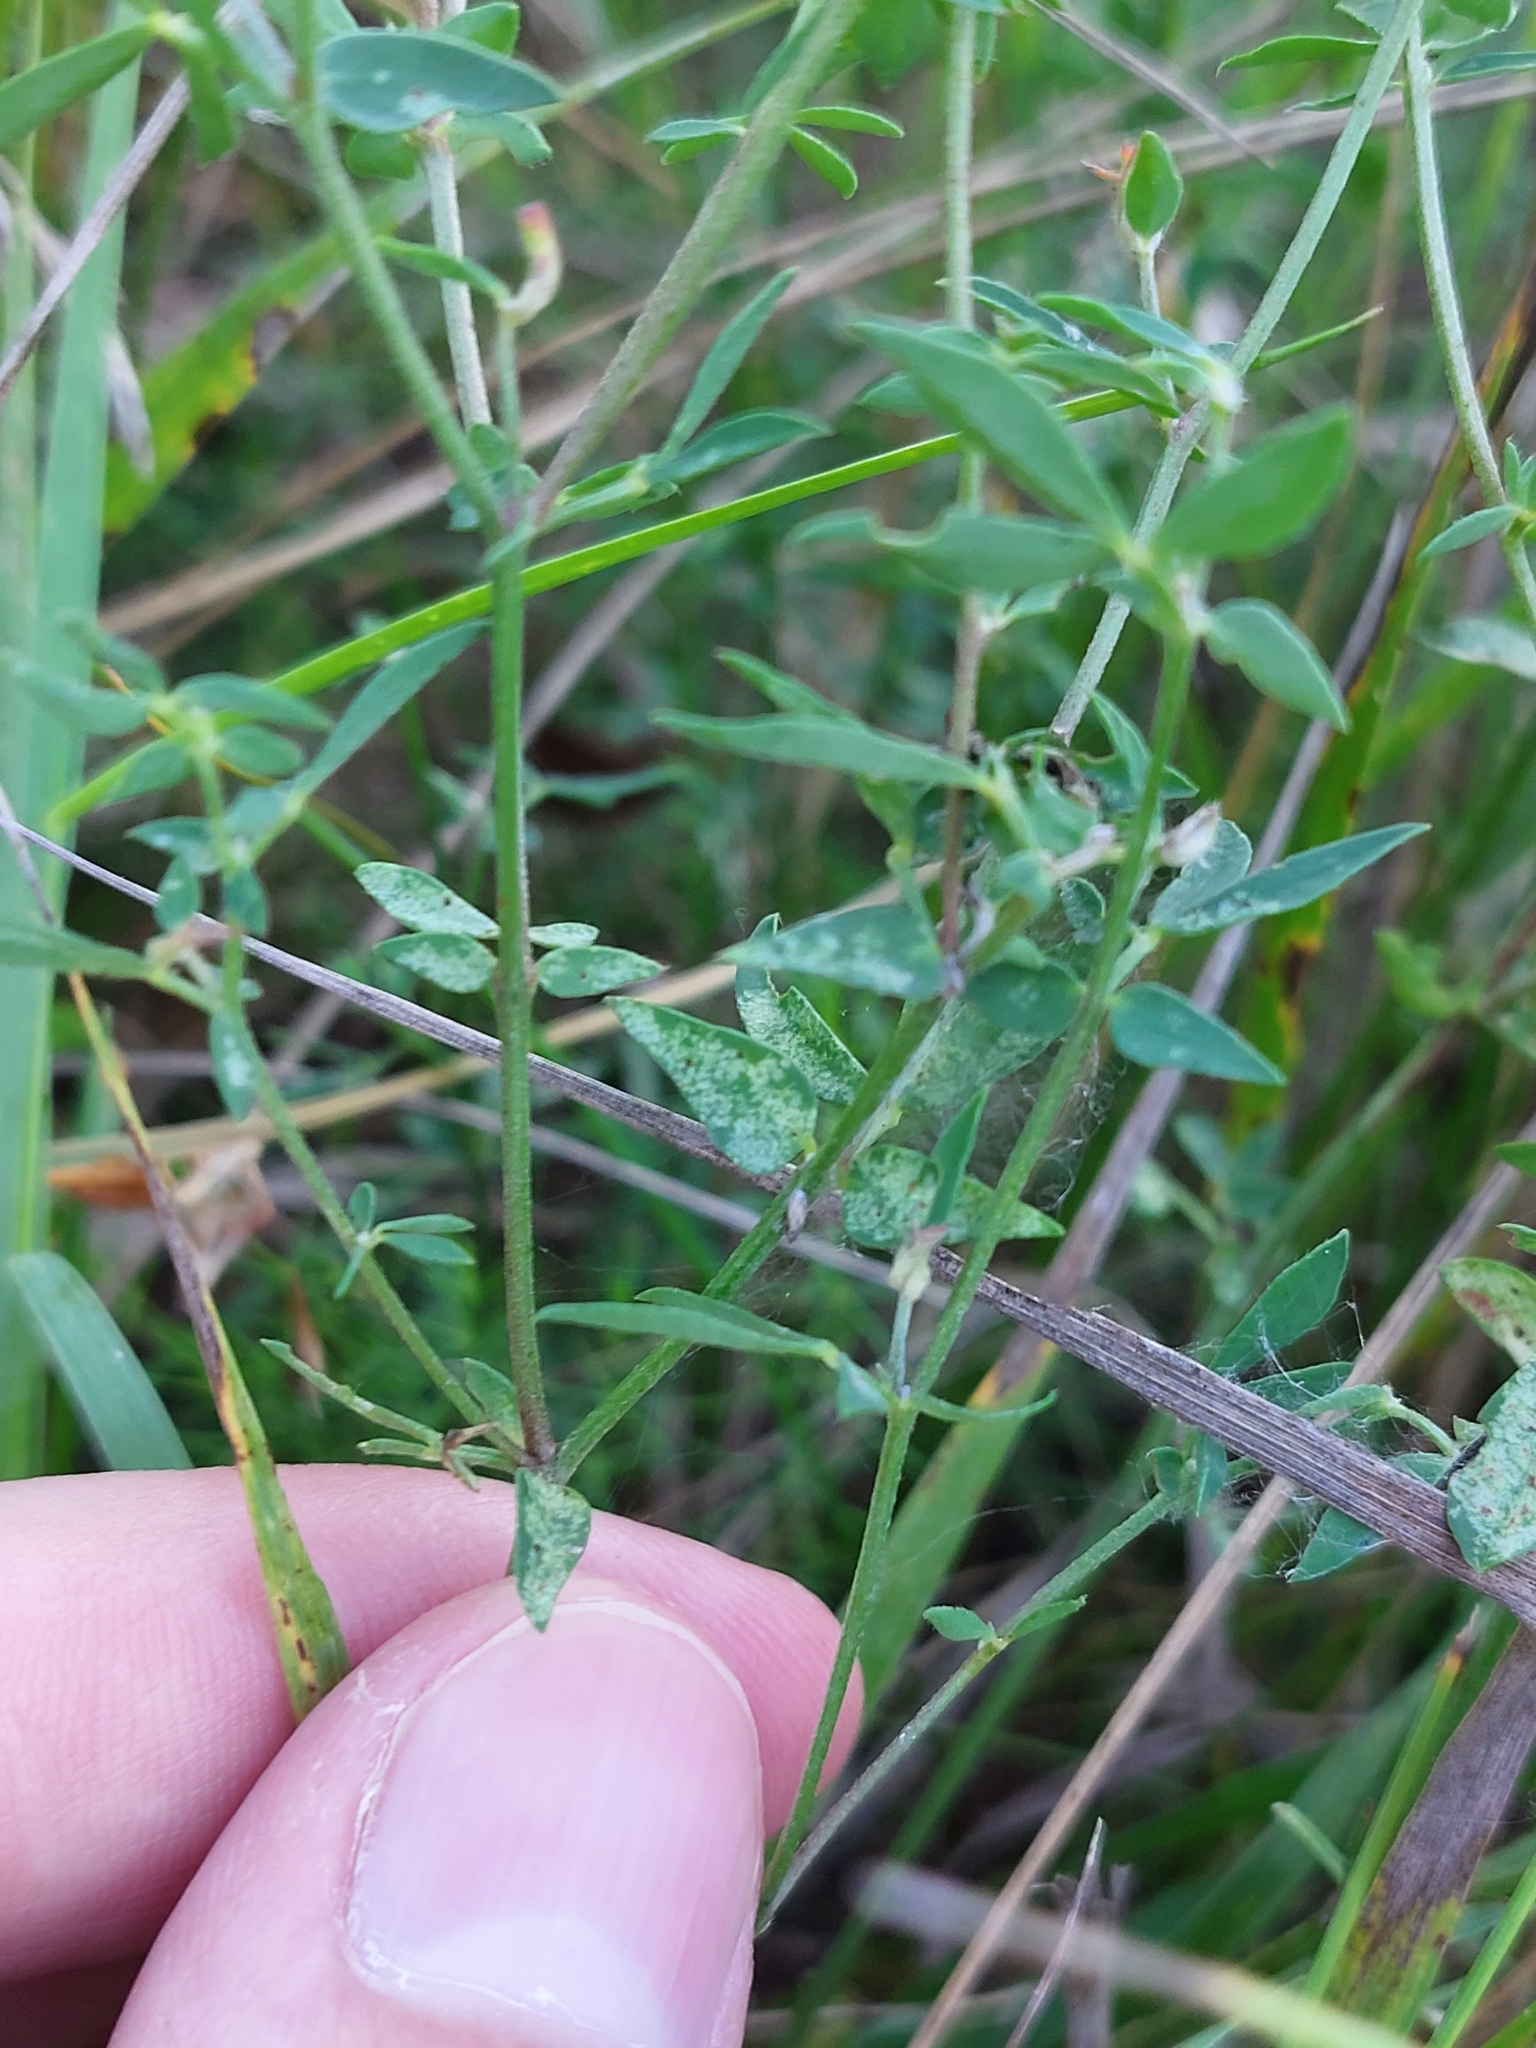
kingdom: Plantae
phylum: Tracheophyta
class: Magnoliopsida
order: Fabales
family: Fabaceae
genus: Lotus
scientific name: Lotus corniculatus
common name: Common bird's-foot-trefoil
